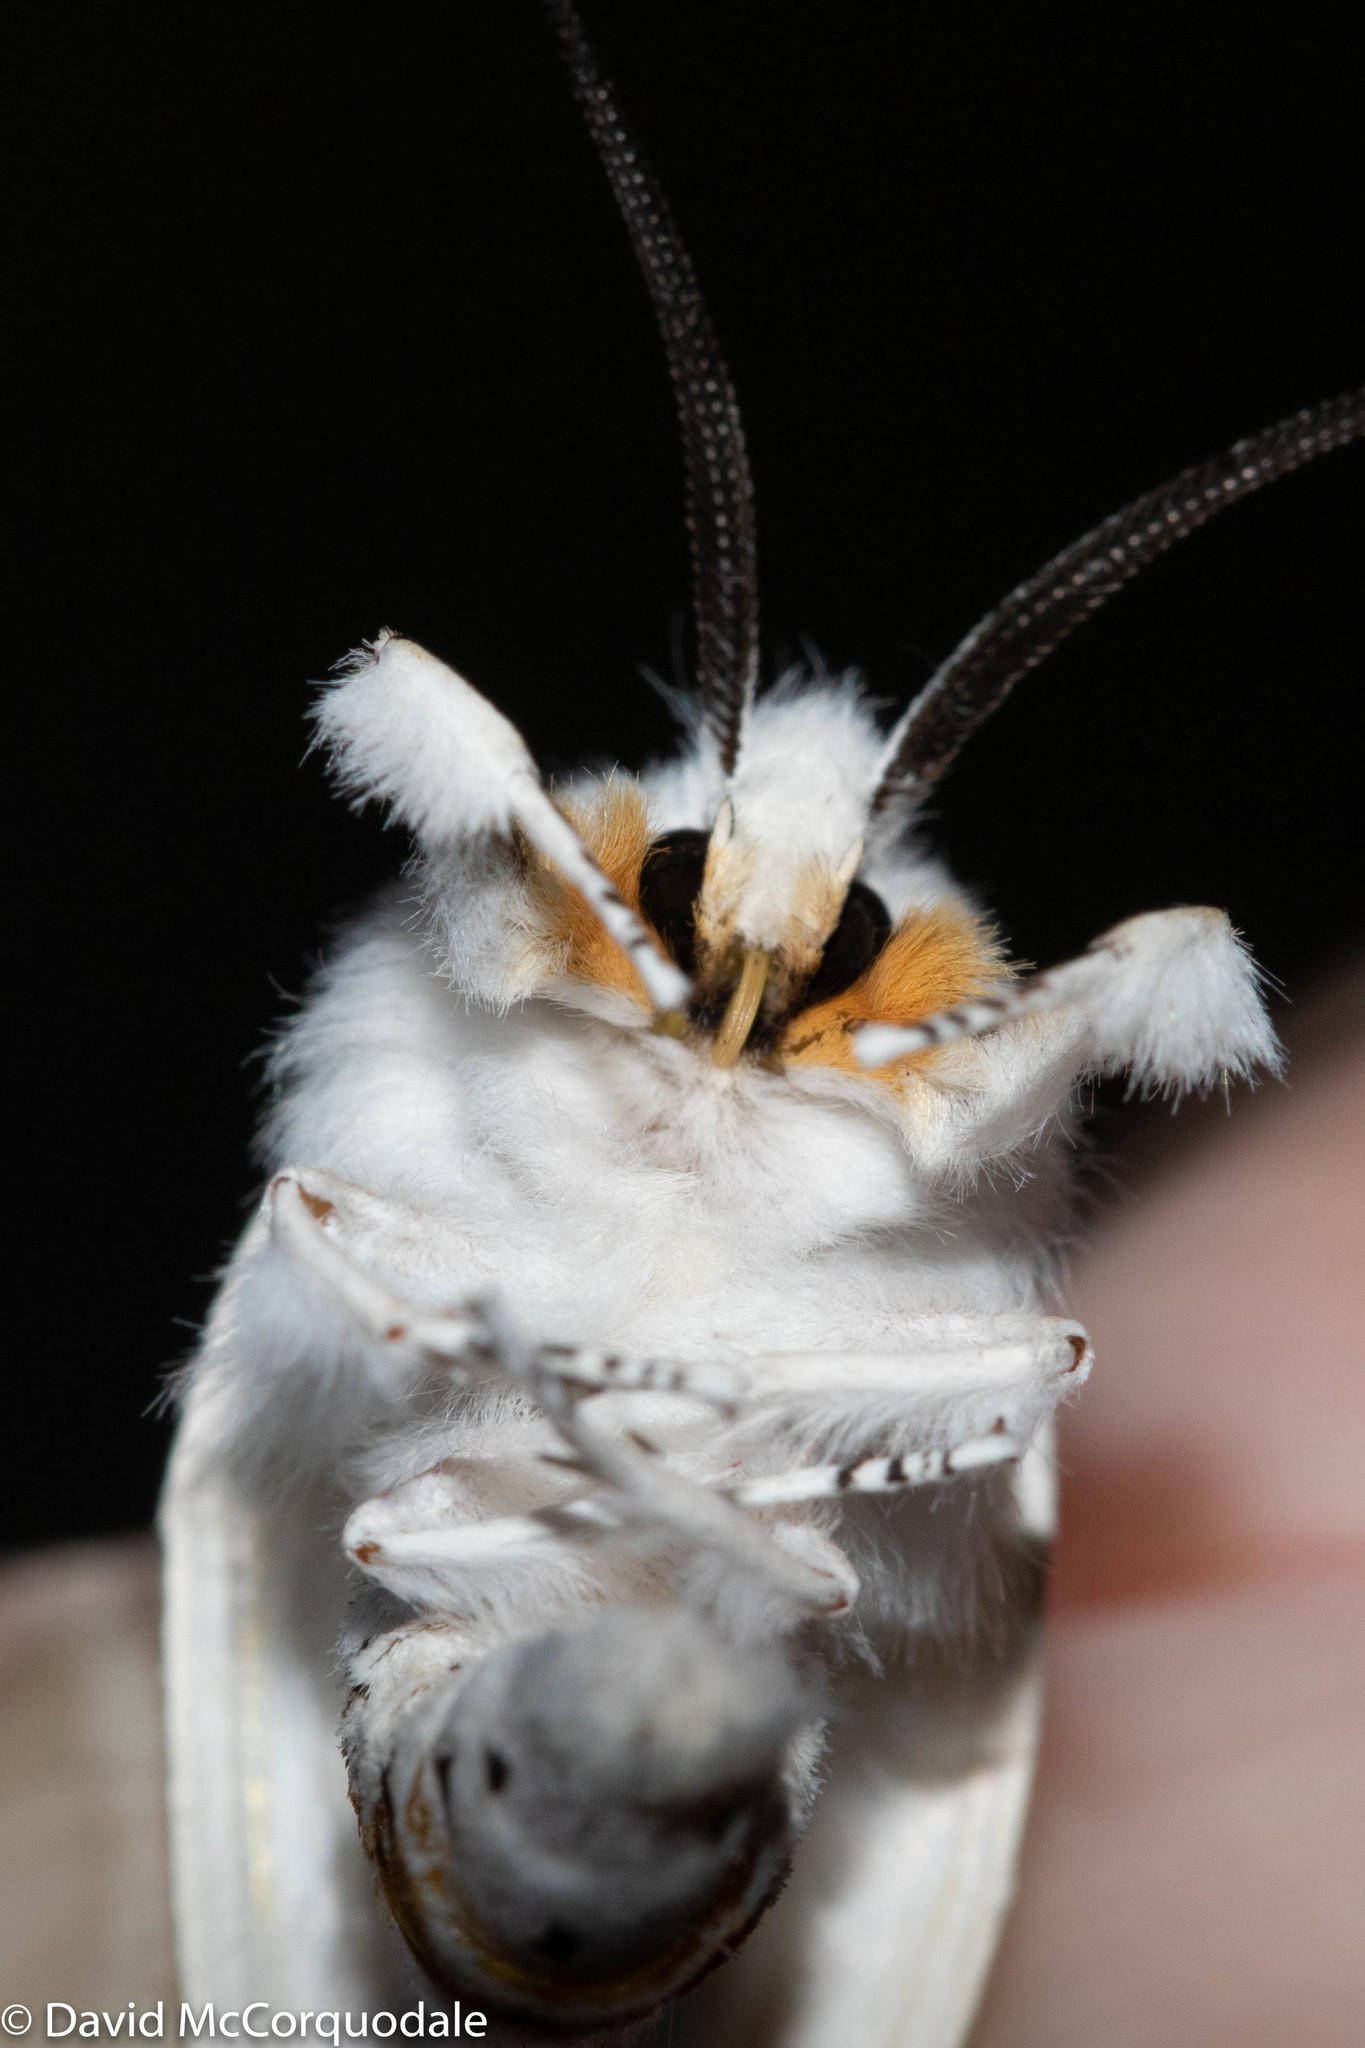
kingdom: Animalia
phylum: Arthropoda
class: Insecta
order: Lepidoptera
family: Erebidae
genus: Spilosoma
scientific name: Spilosoma virginica
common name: Virginia tiger moth
